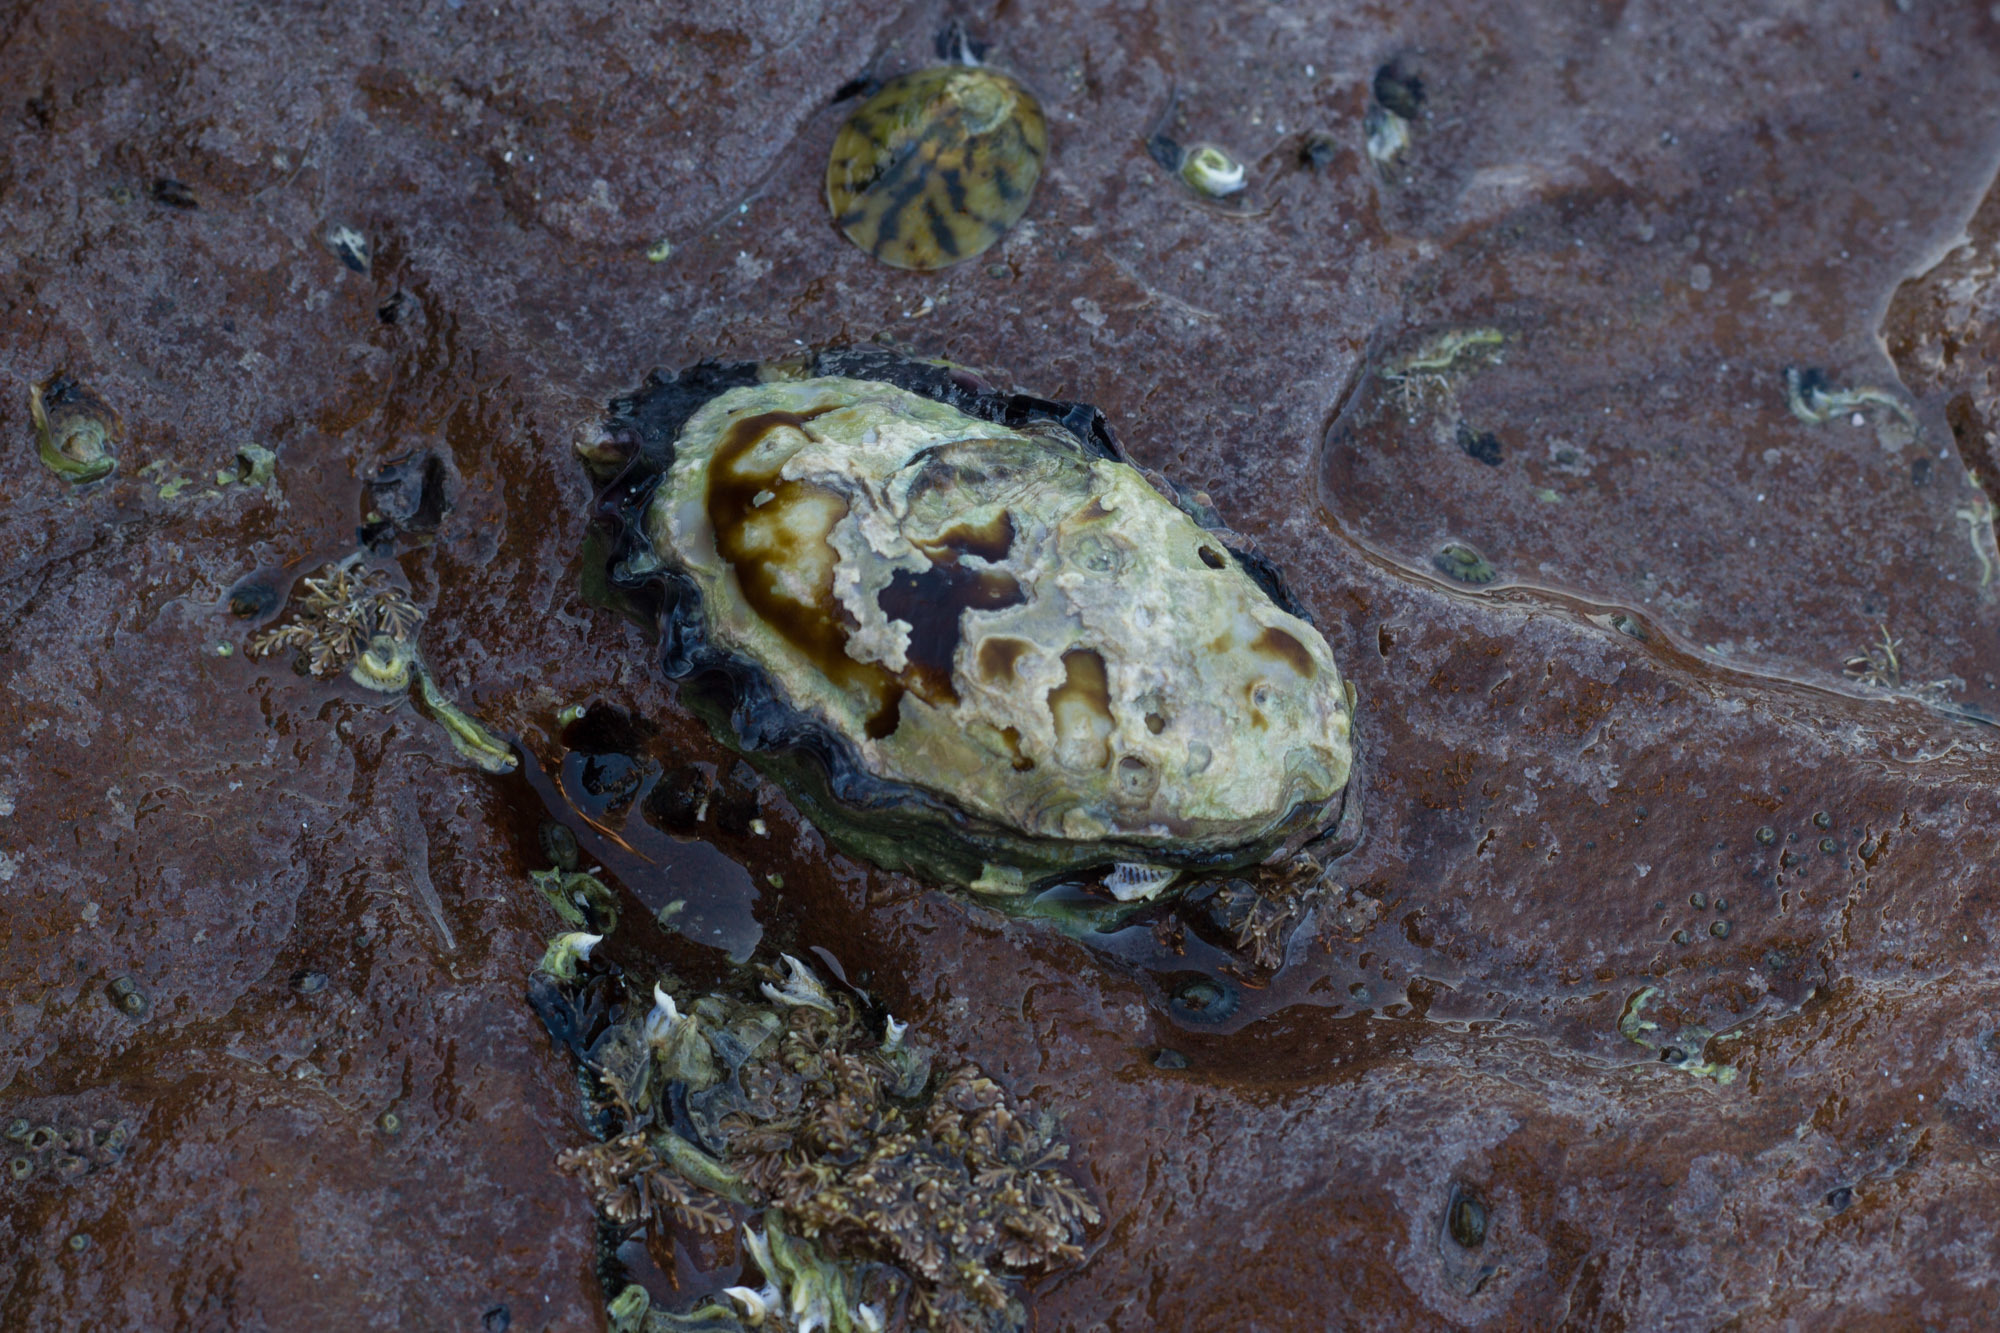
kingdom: Animalia
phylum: Mollusca
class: Bivalvia
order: Ostreida
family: Ostreidae
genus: Saccostrea
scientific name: Saccostrea glomerata
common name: Sydney cupped oyster
